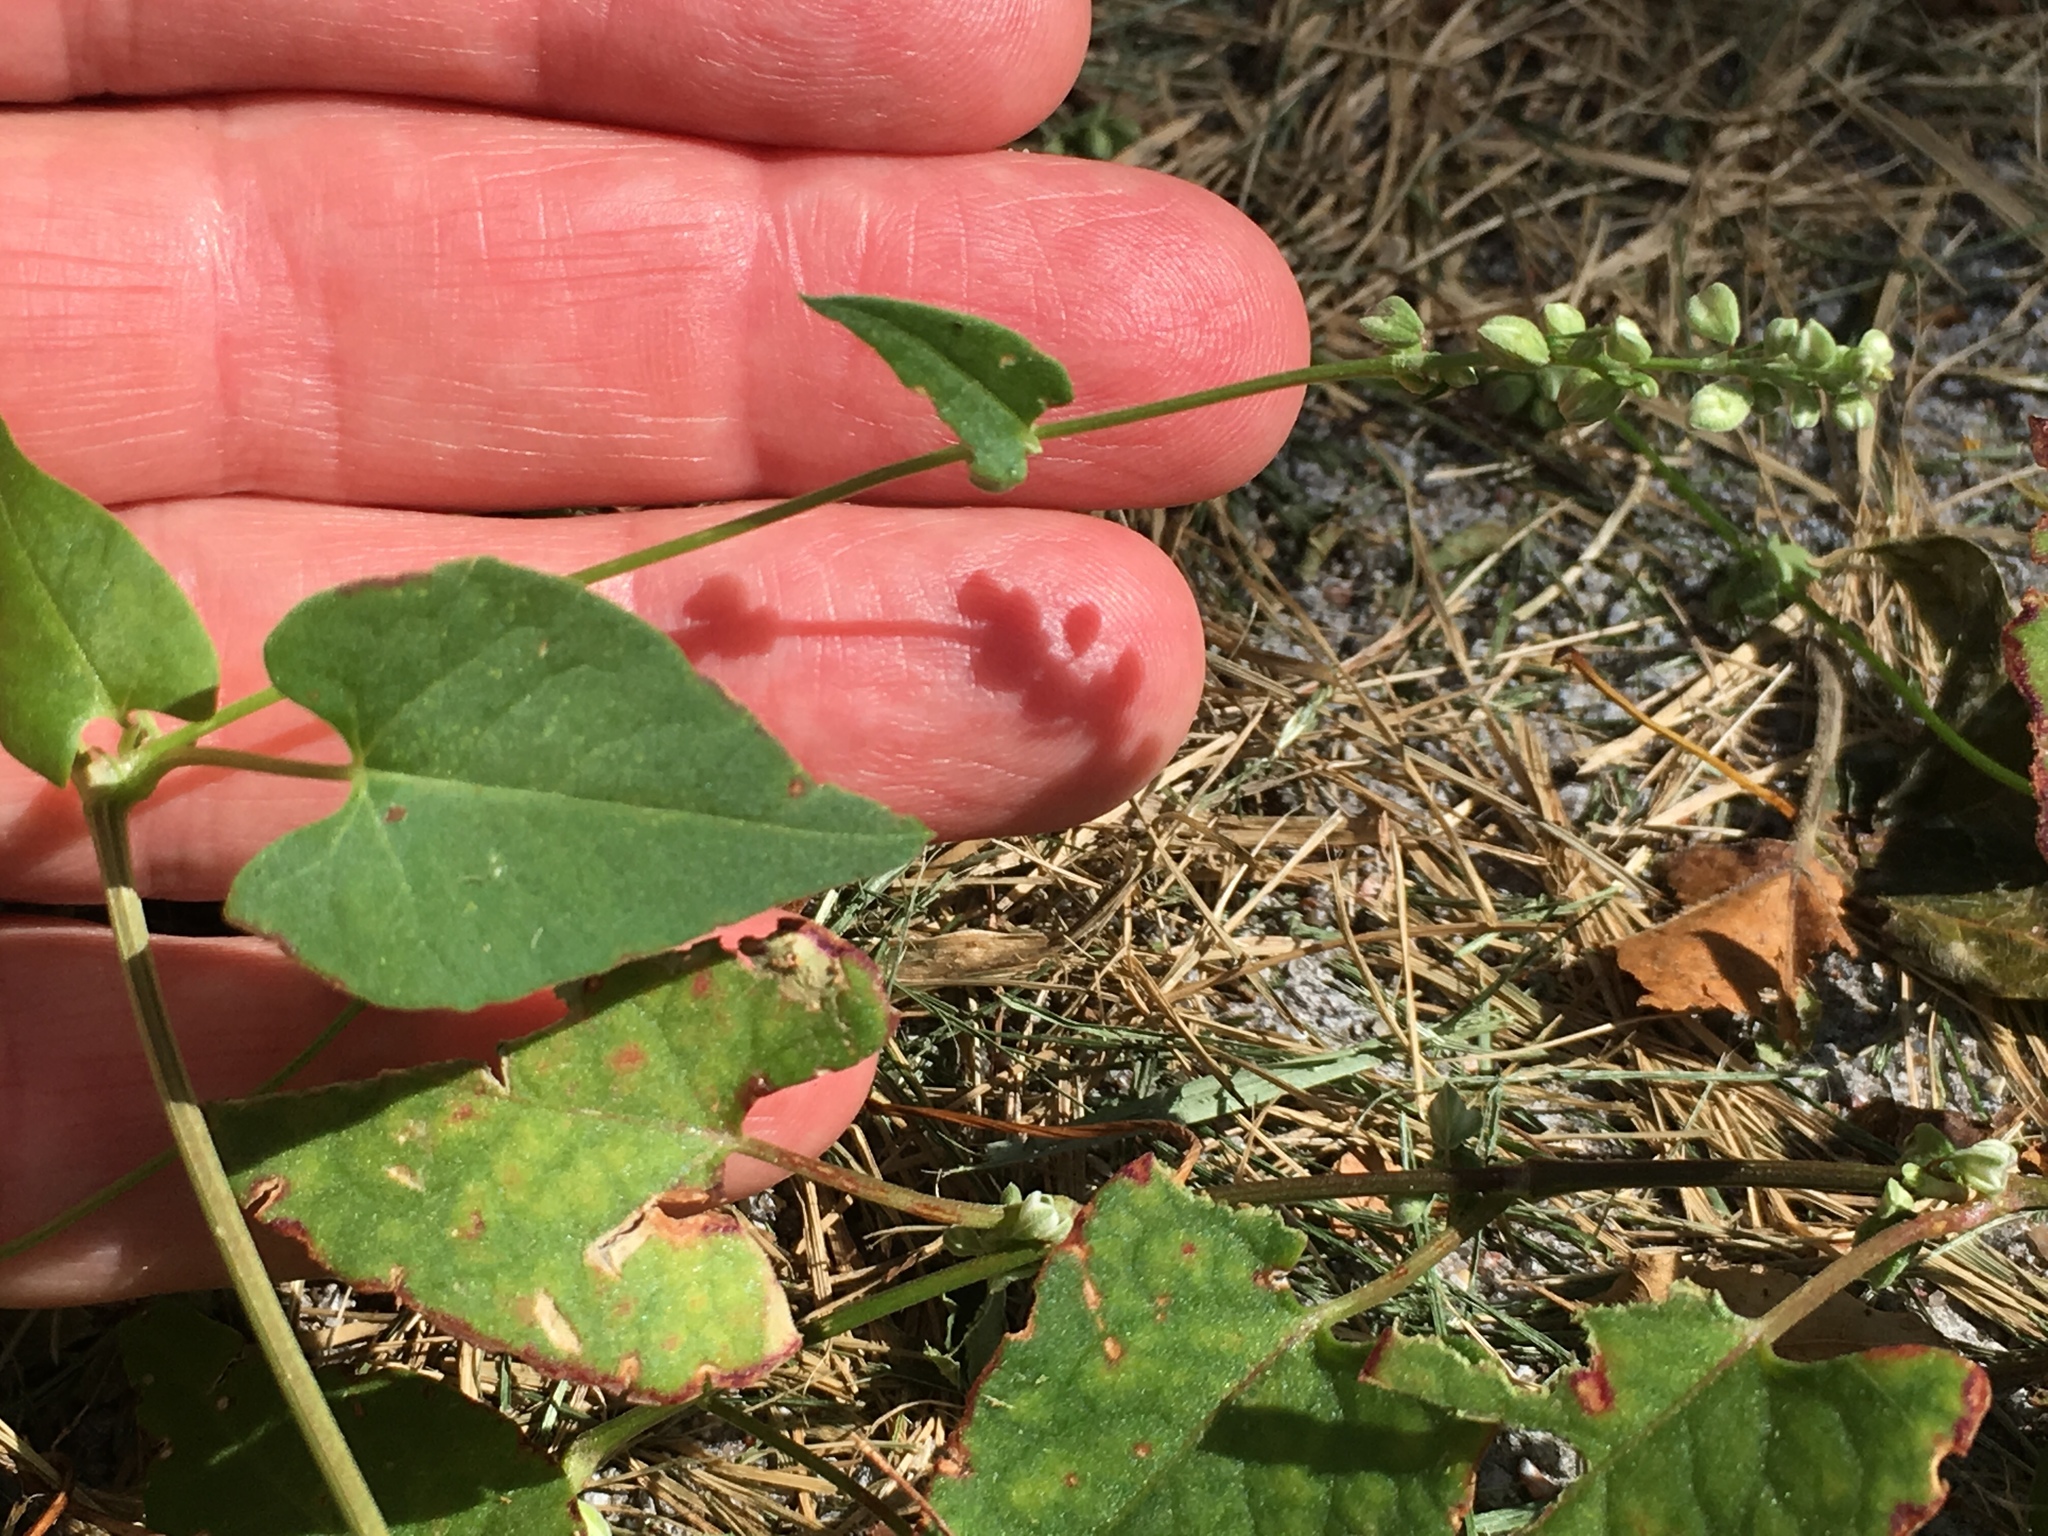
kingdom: Plantae
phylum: Tracheophyta
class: Magnoliopsida
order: Caryophyllales
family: Polygonaceae
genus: Fallopia
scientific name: Fallopia convolvulus
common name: Black bindweed
